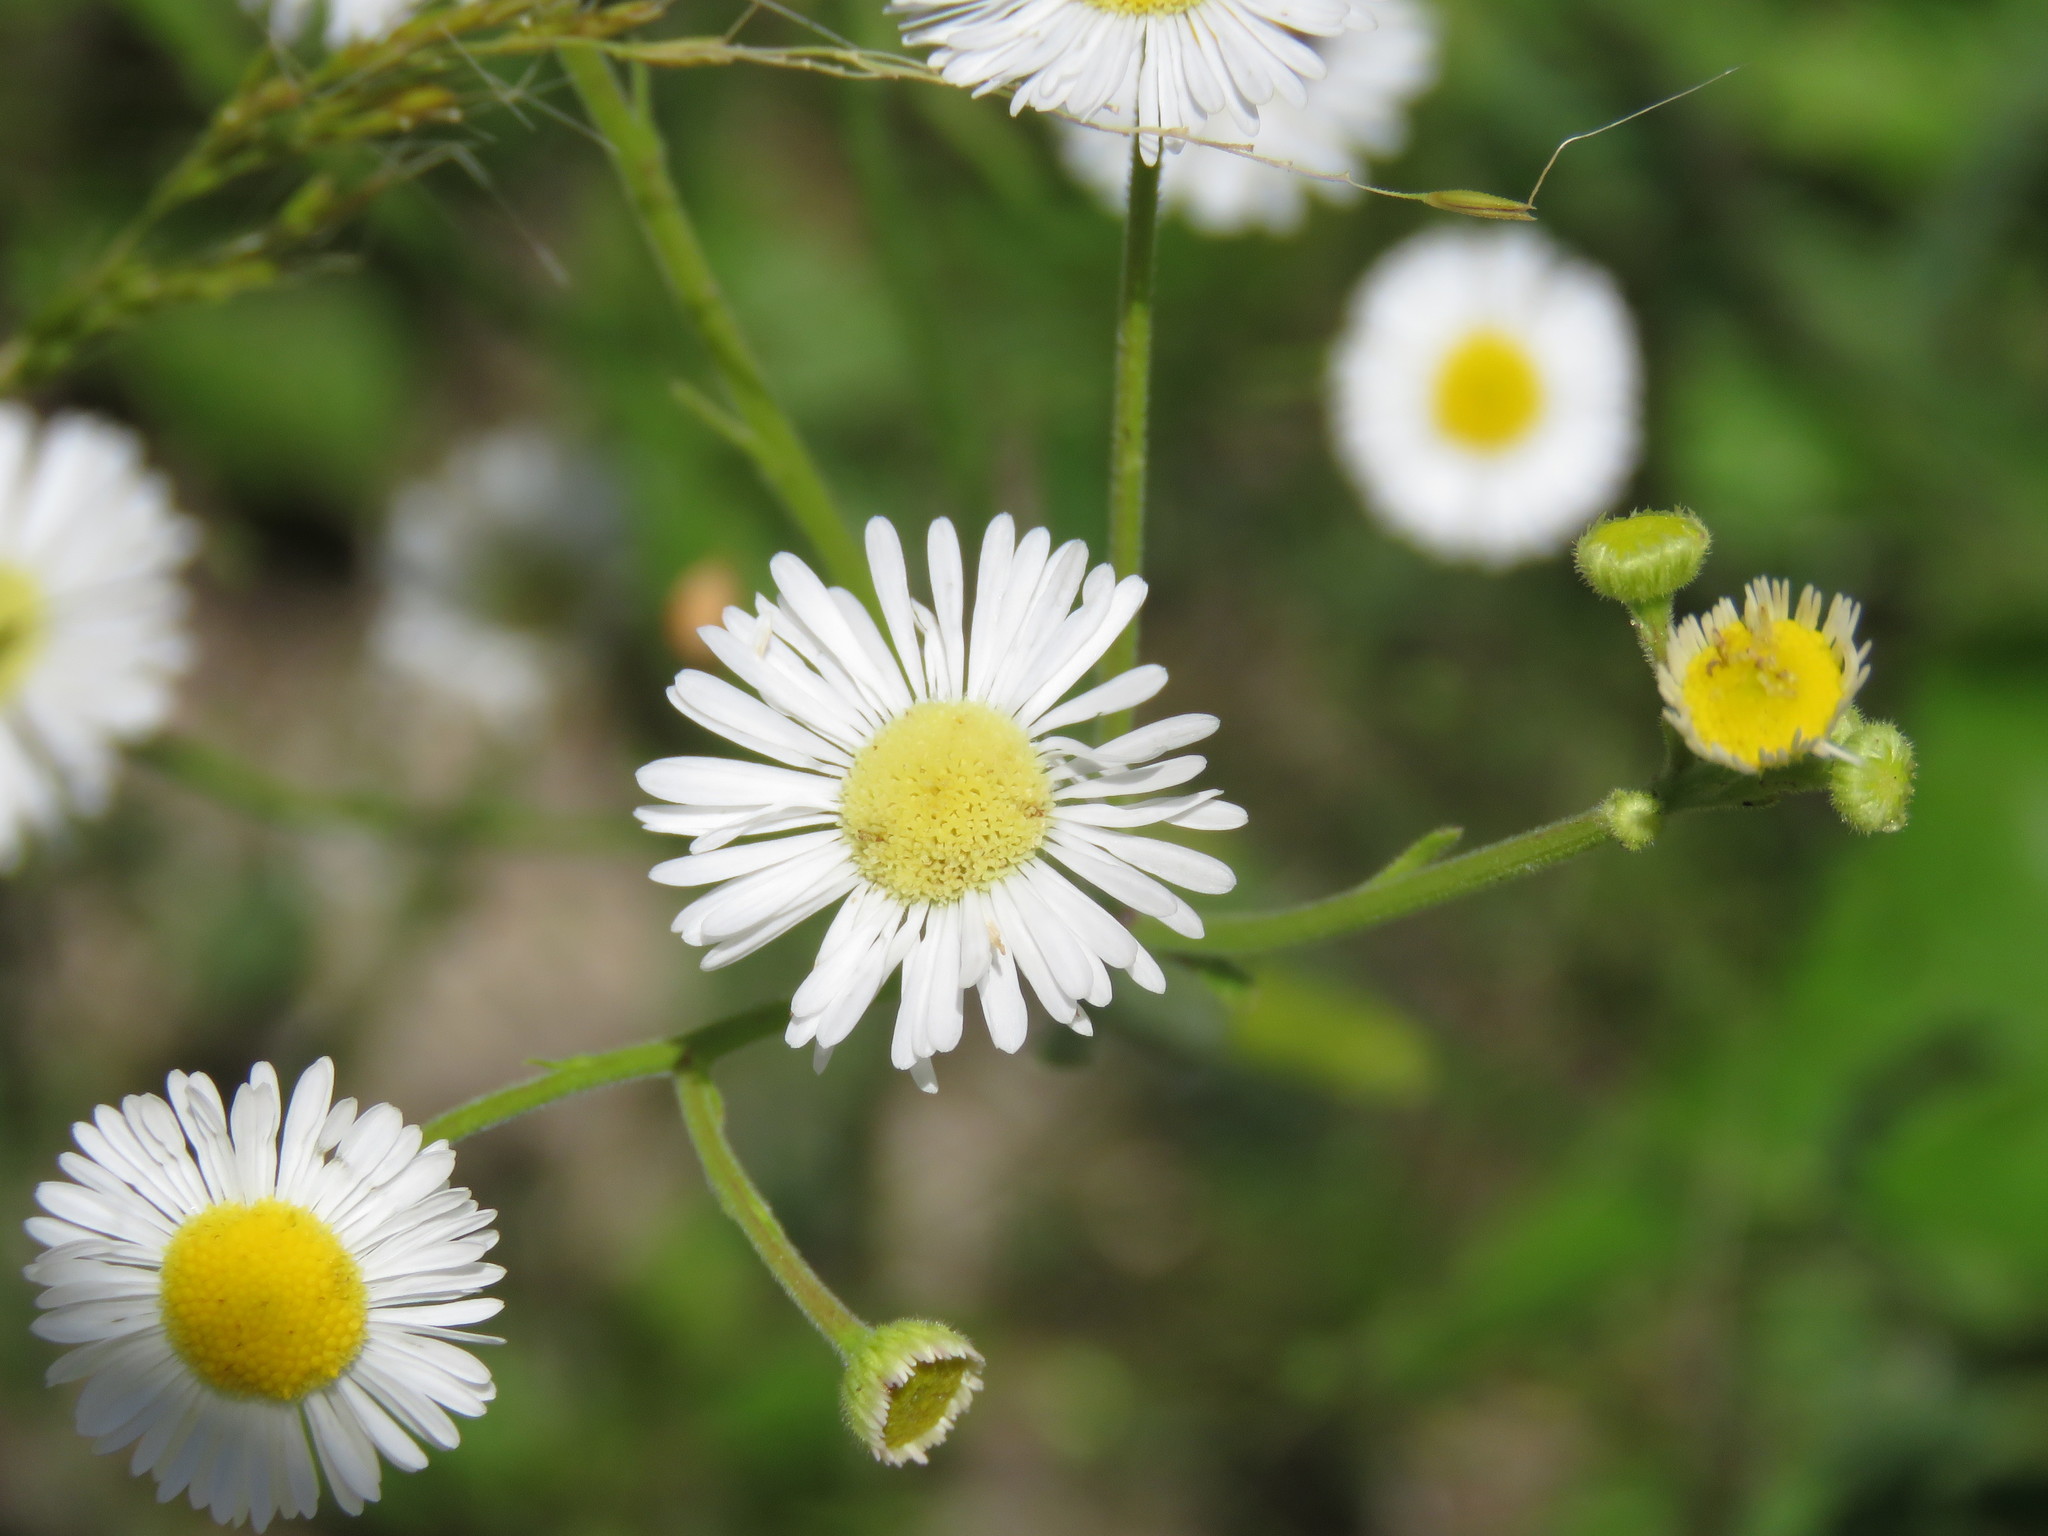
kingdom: Plantae
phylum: Tracheophyta
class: Magnoliopsida
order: Asterales
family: Asteraceae
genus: Erigeron
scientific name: Erigeron strigosus
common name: Common eastern fleabane
